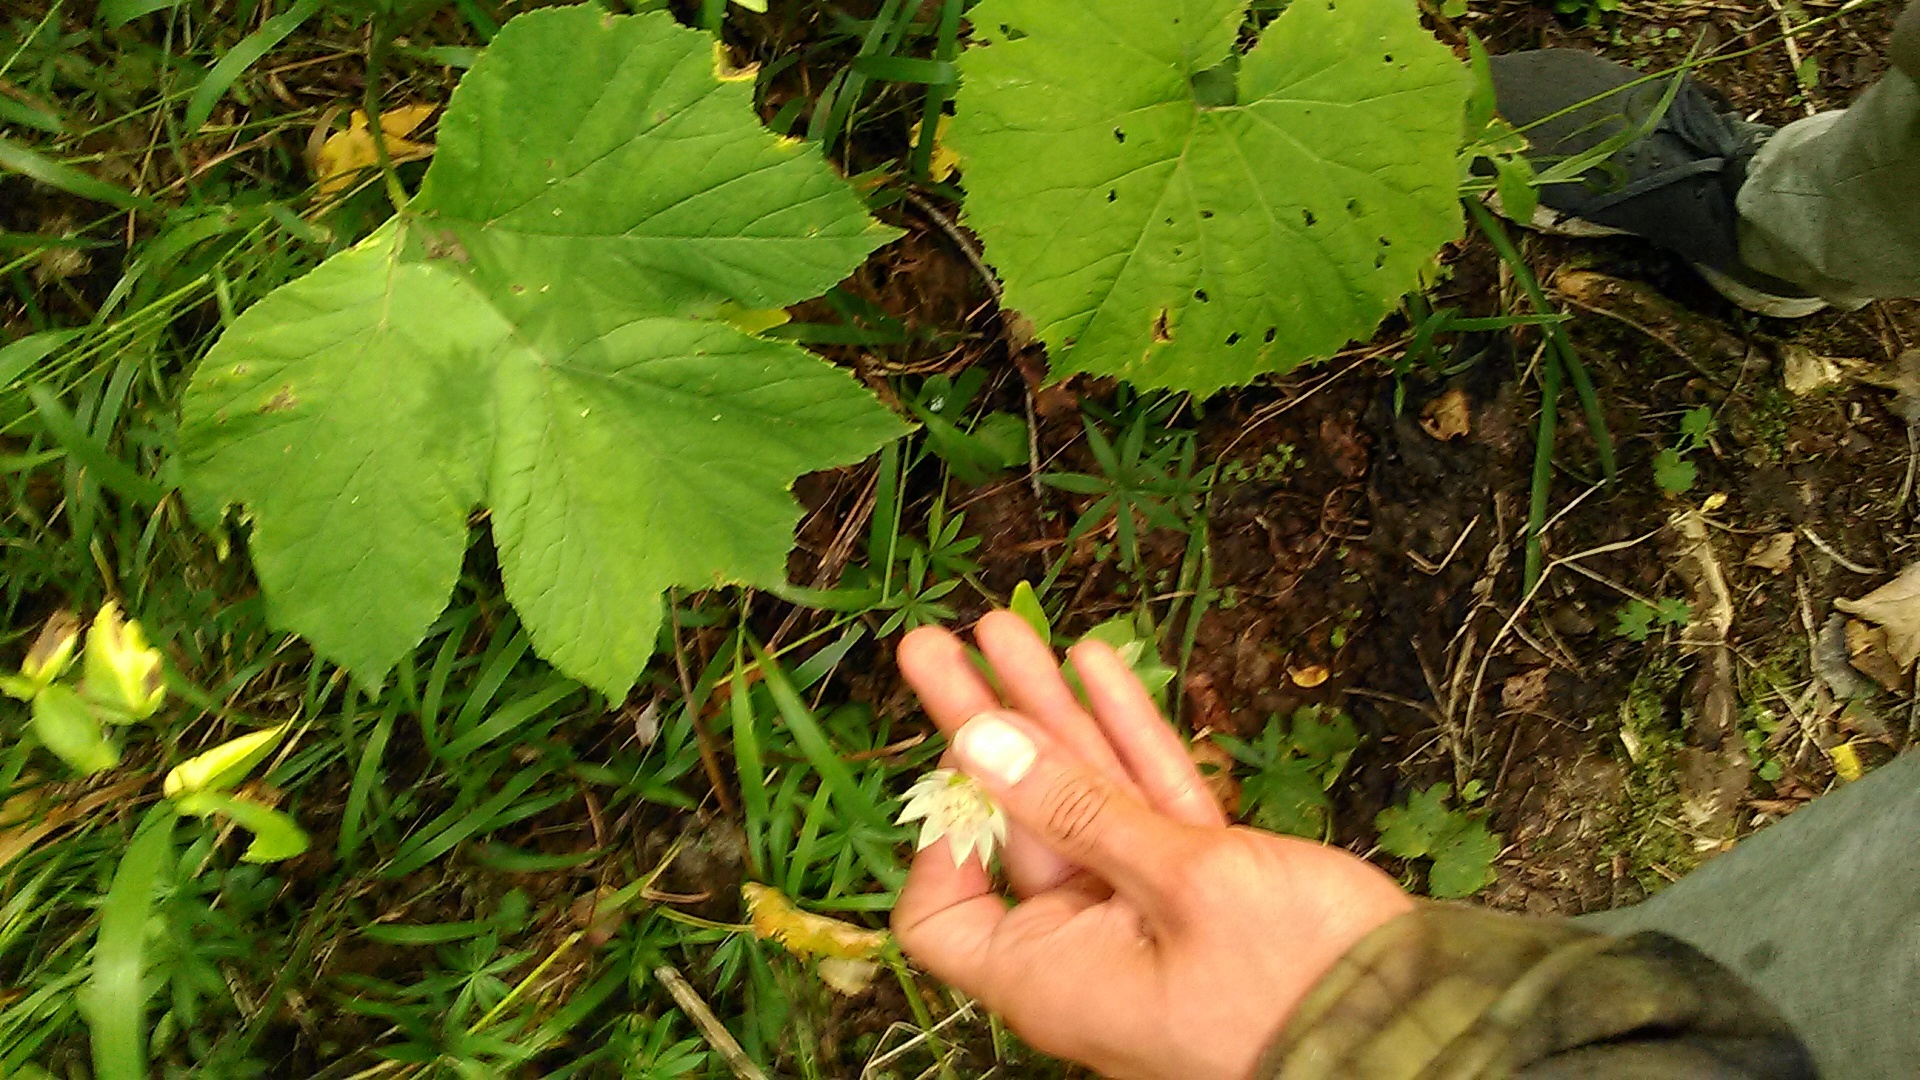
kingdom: Plantae
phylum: Tracheophyta
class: Magnoliopsida
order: Apiales
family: Apiaceae
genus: Astrantia
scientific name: Astrantia maxima
